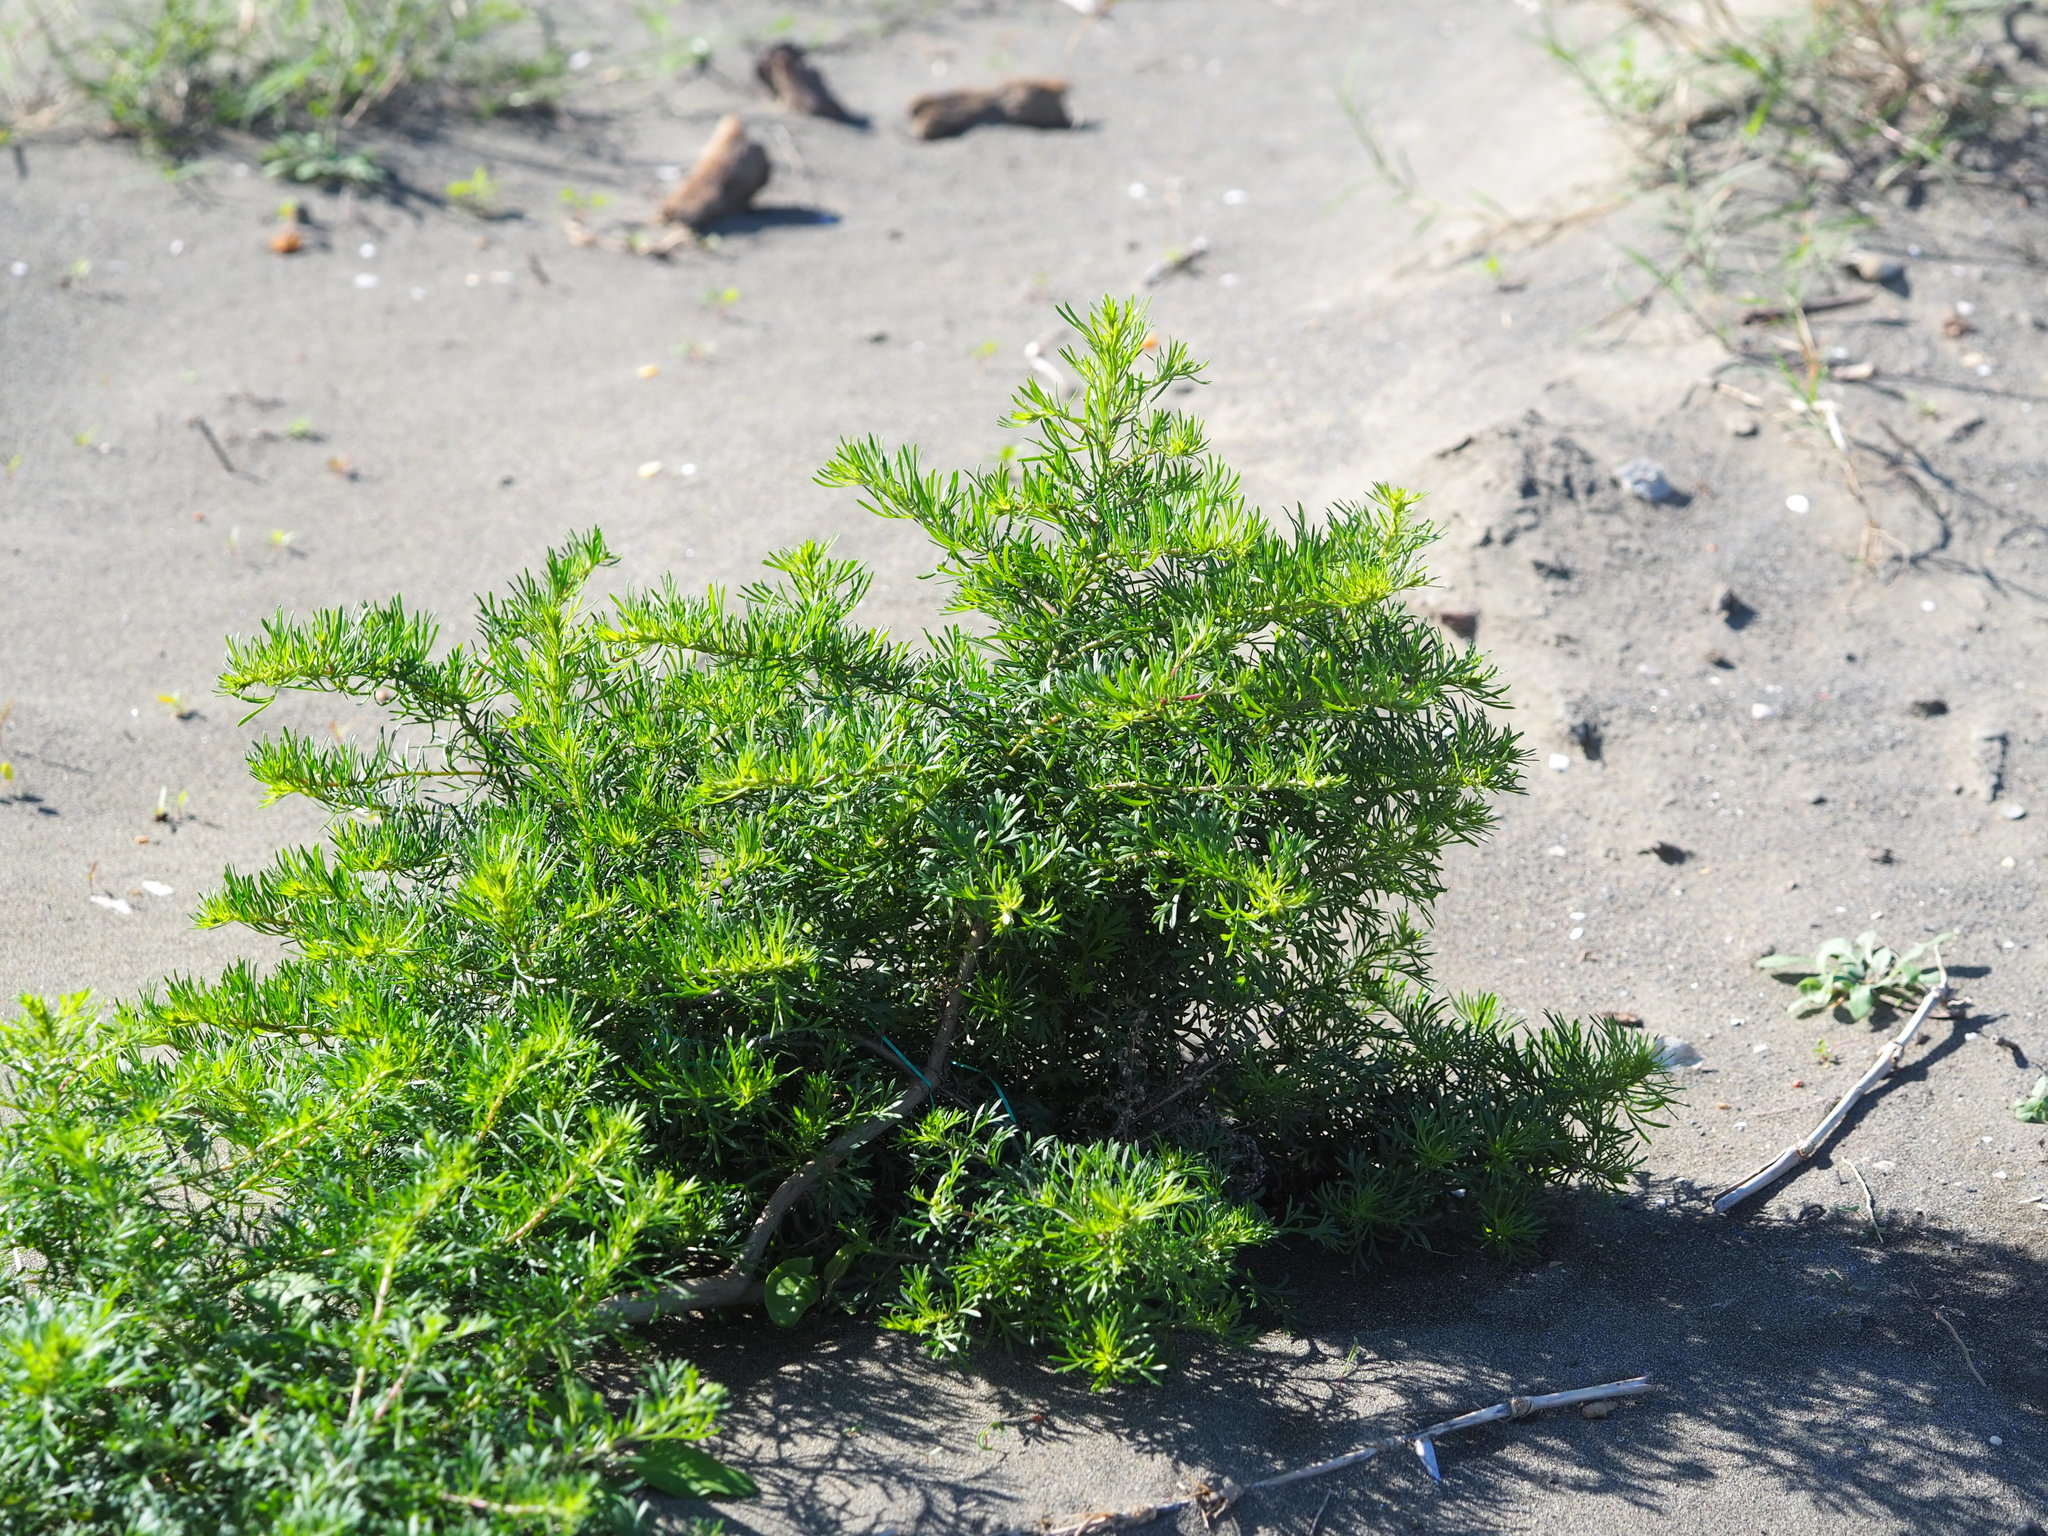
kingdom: Plantae
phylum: Tracheophyta
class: Magnoliopsida
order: Asterales
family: Asteraceae
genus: Artemisia
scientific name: Artemisia capillaris
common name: Yin-chen wormwood
